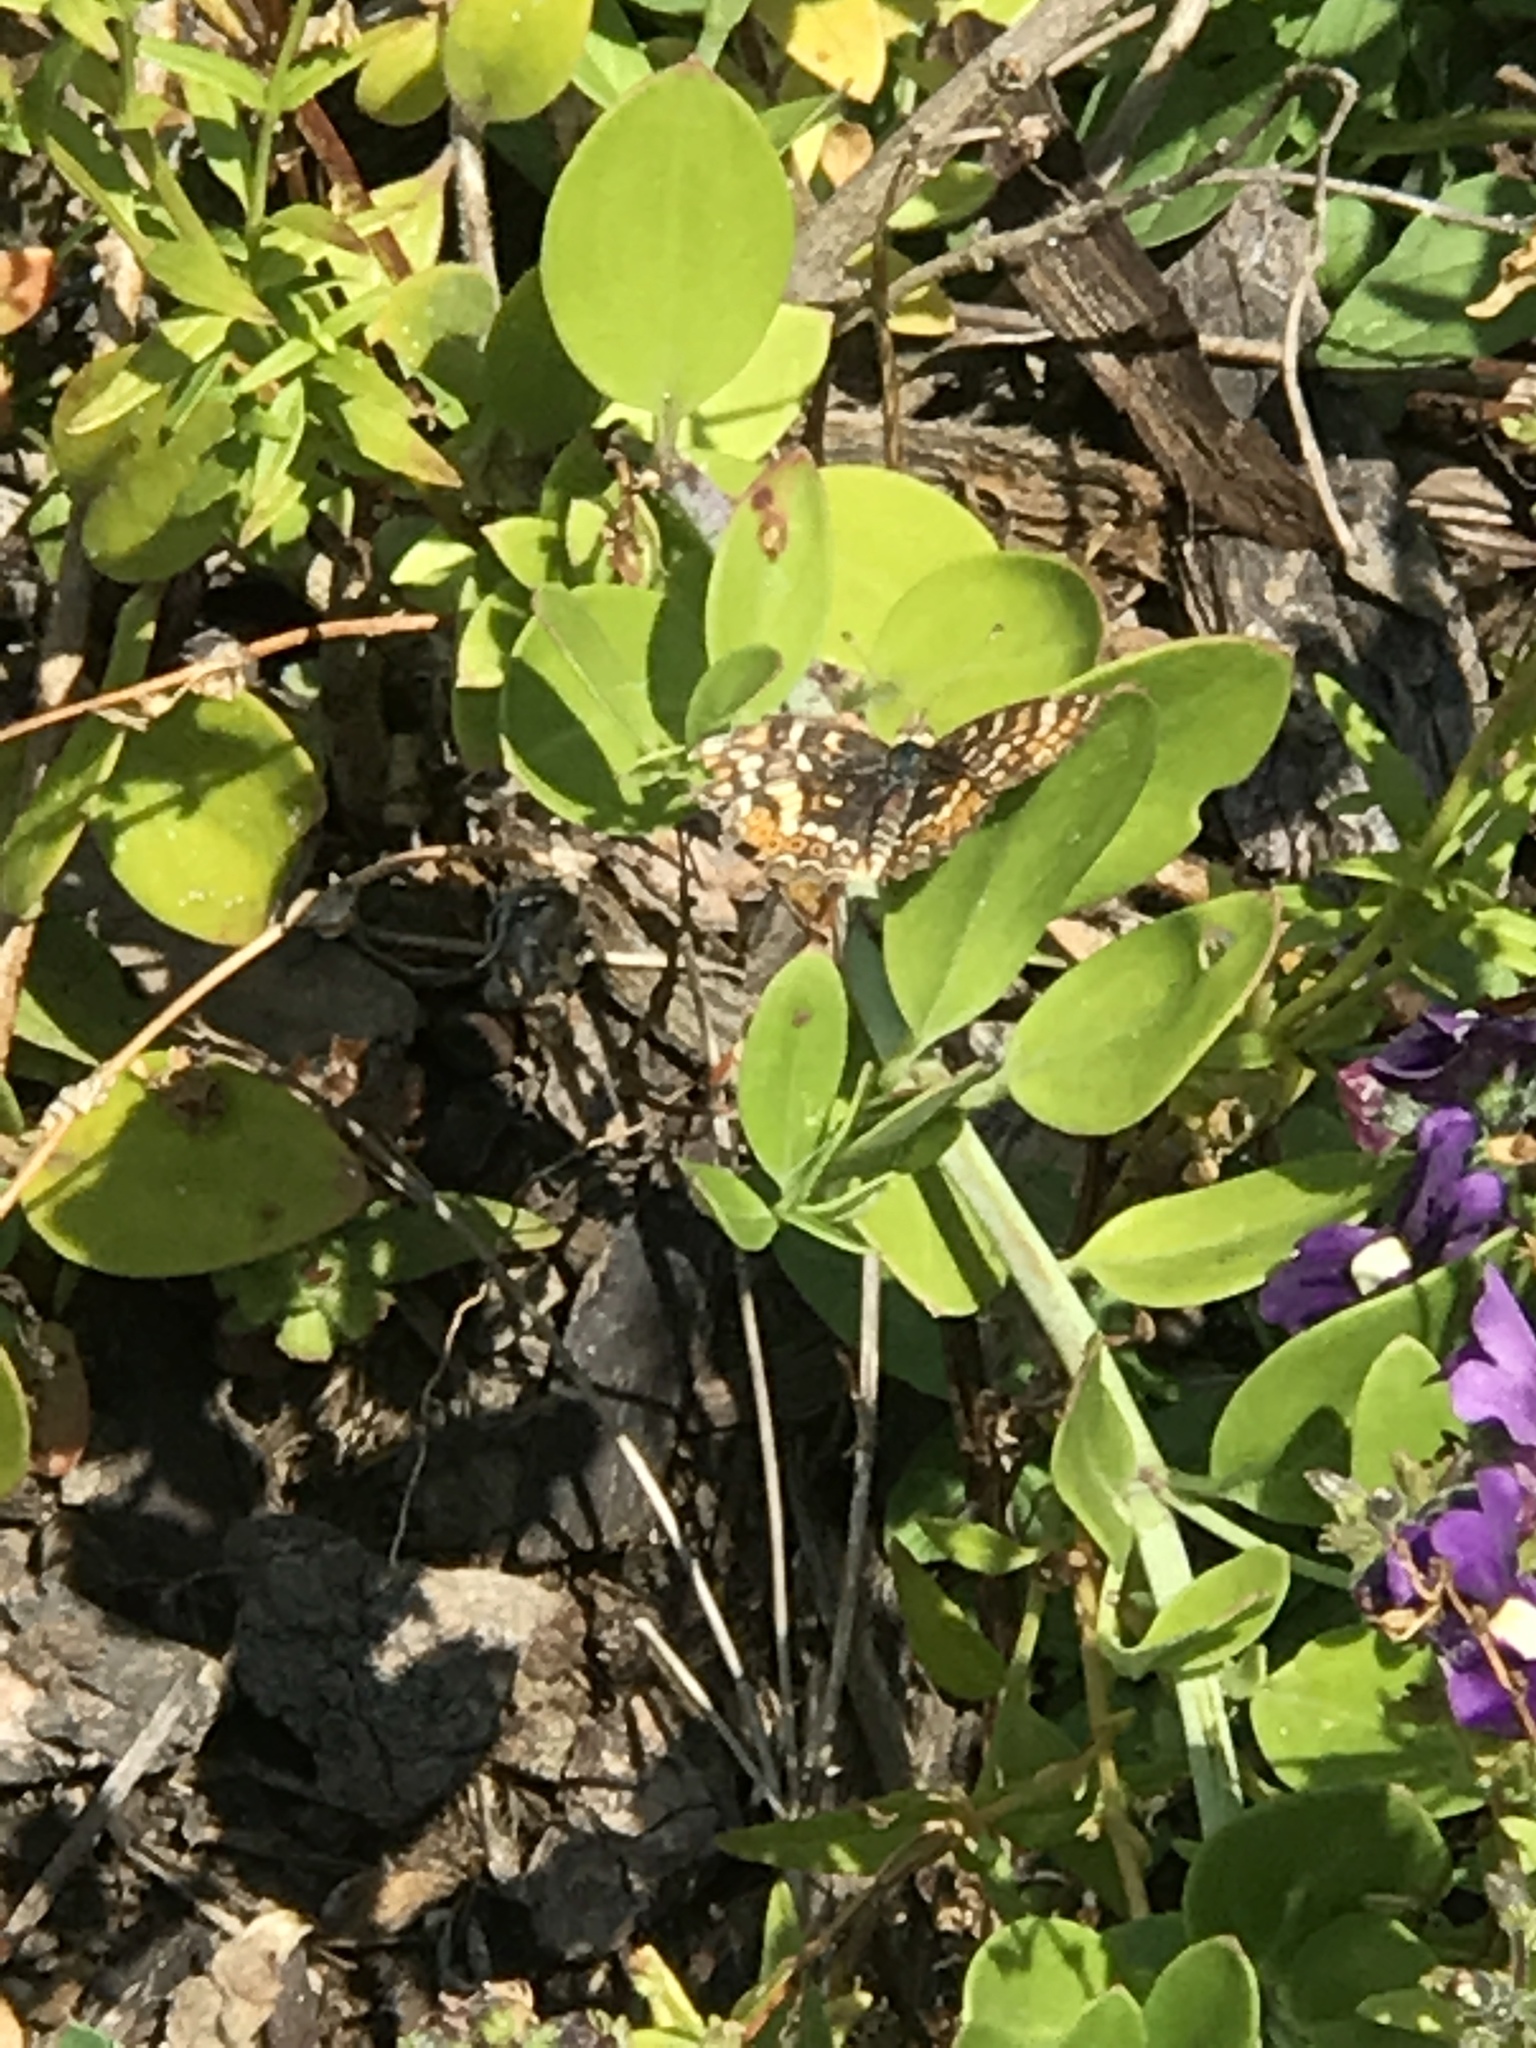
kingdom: Animalia
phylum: Arthropoda
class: Insecta
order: Lepidoptera
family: Nymphalidae
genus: Phyciodes
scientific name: Phyciodes tharos
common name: Pearl crescent
